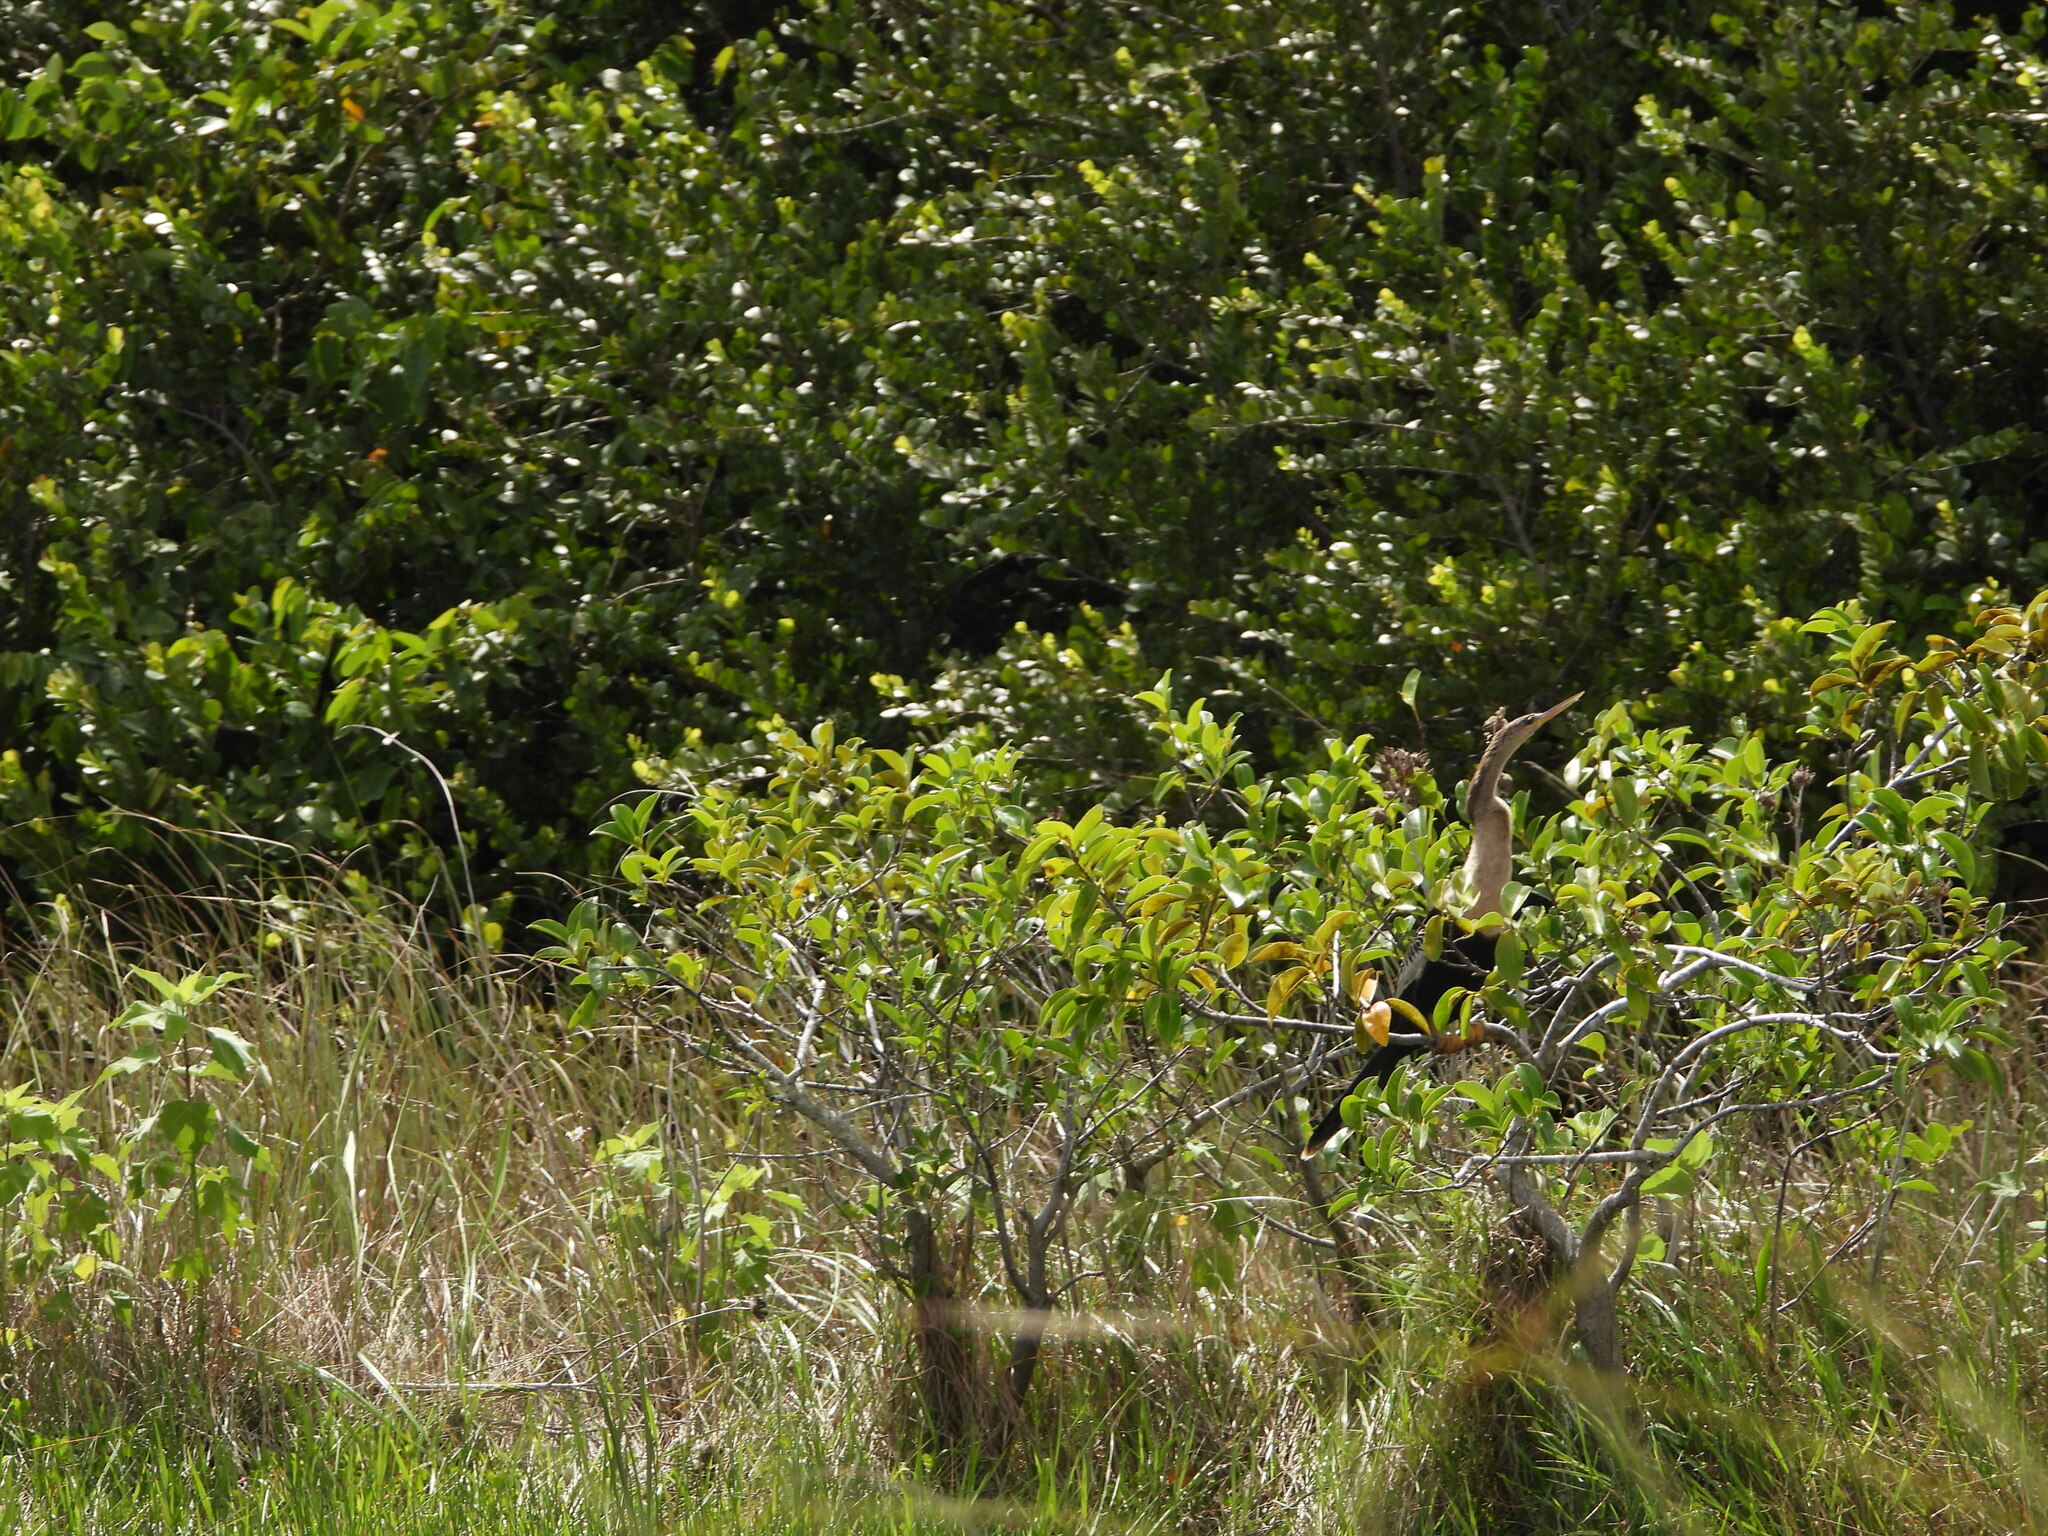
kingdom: Animalia
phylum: Chordata
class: Aves
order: Suliformes
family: Anhingidae
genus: Anhinga
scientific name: Anhinga anhinga
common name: Anhinga
